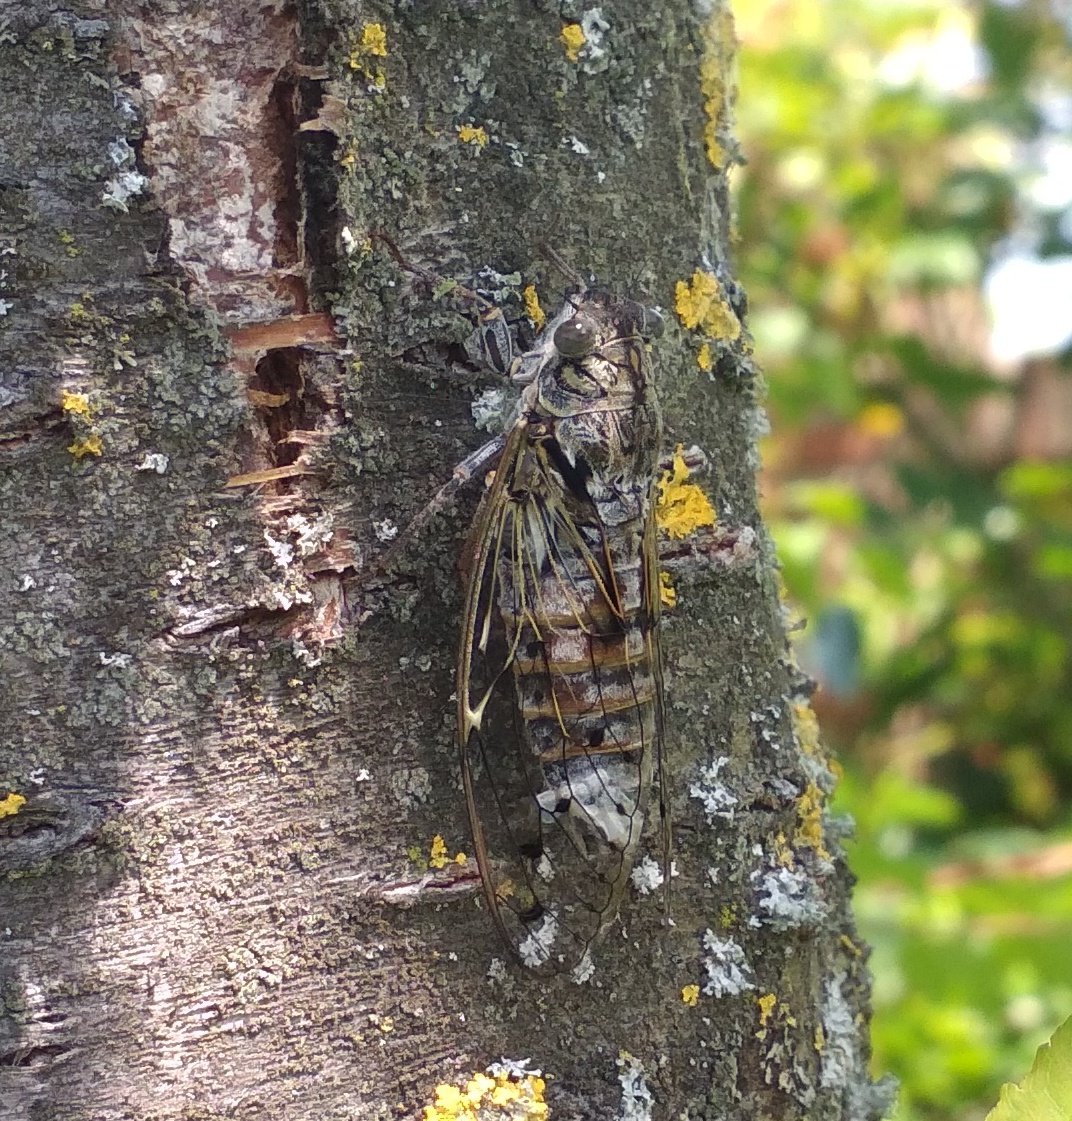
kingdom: Animalia
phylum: Arthropoda
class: Insecta
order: Hemiptera
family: Cicadidae
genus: Cicada
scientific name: Cicada orni
